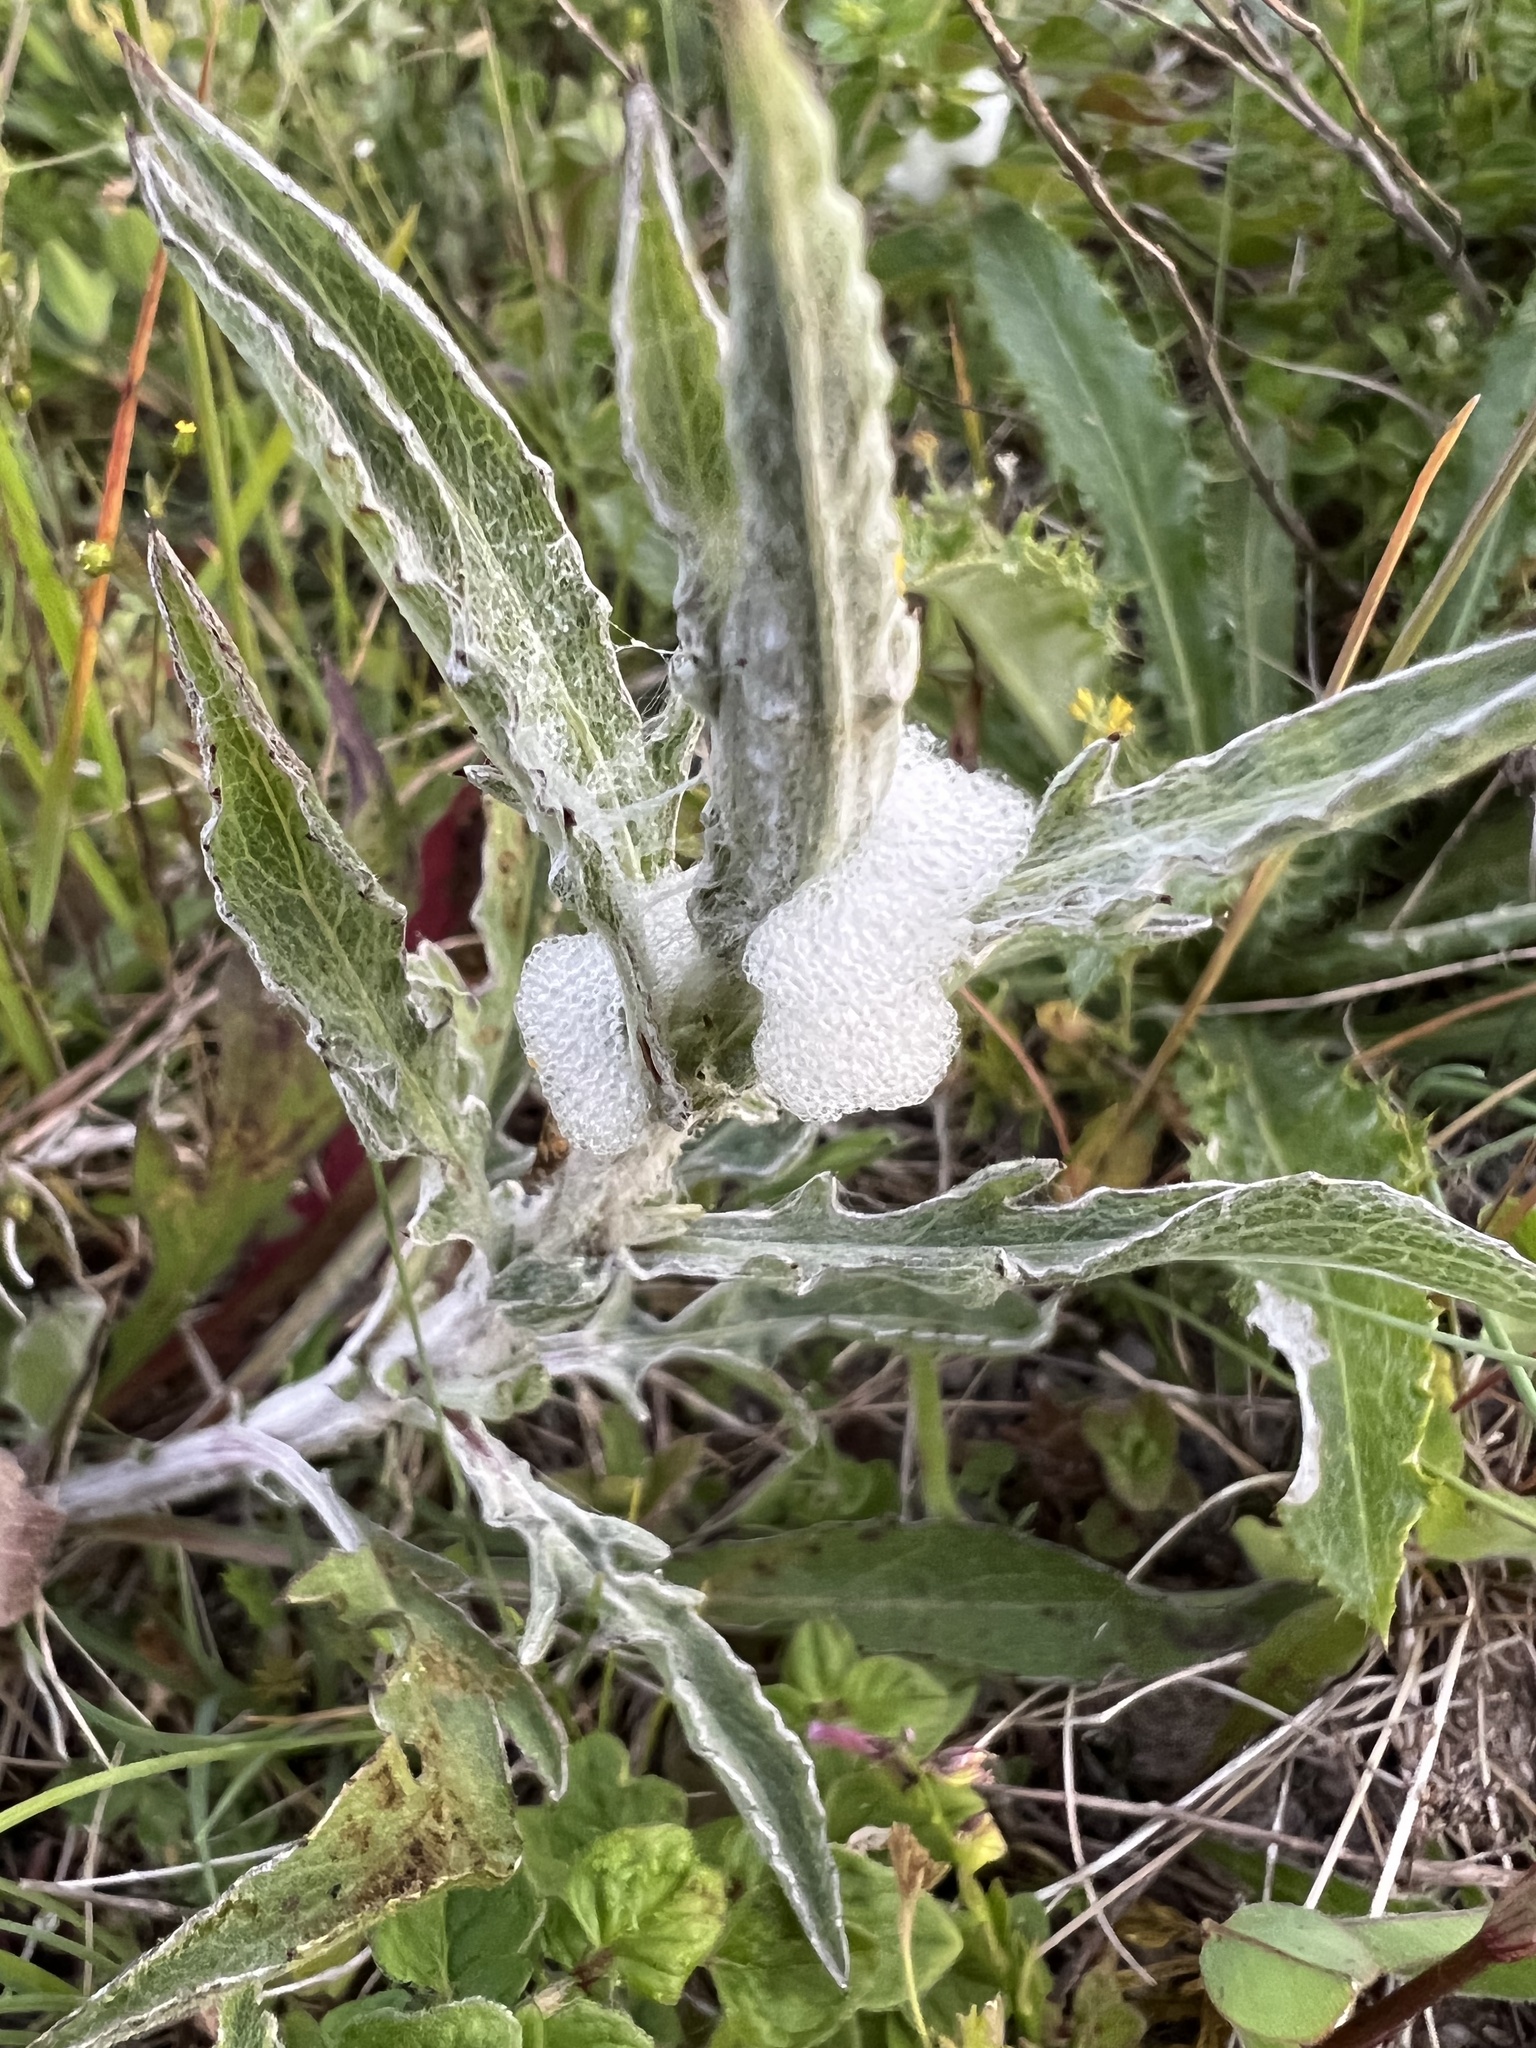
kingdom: Animalia
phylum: Arthropoda
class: Insecta
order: Hemiptera
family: Aphrophoridae
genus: Philaenus
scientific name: Philaenus spumarius
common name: Meadow spittlebug
